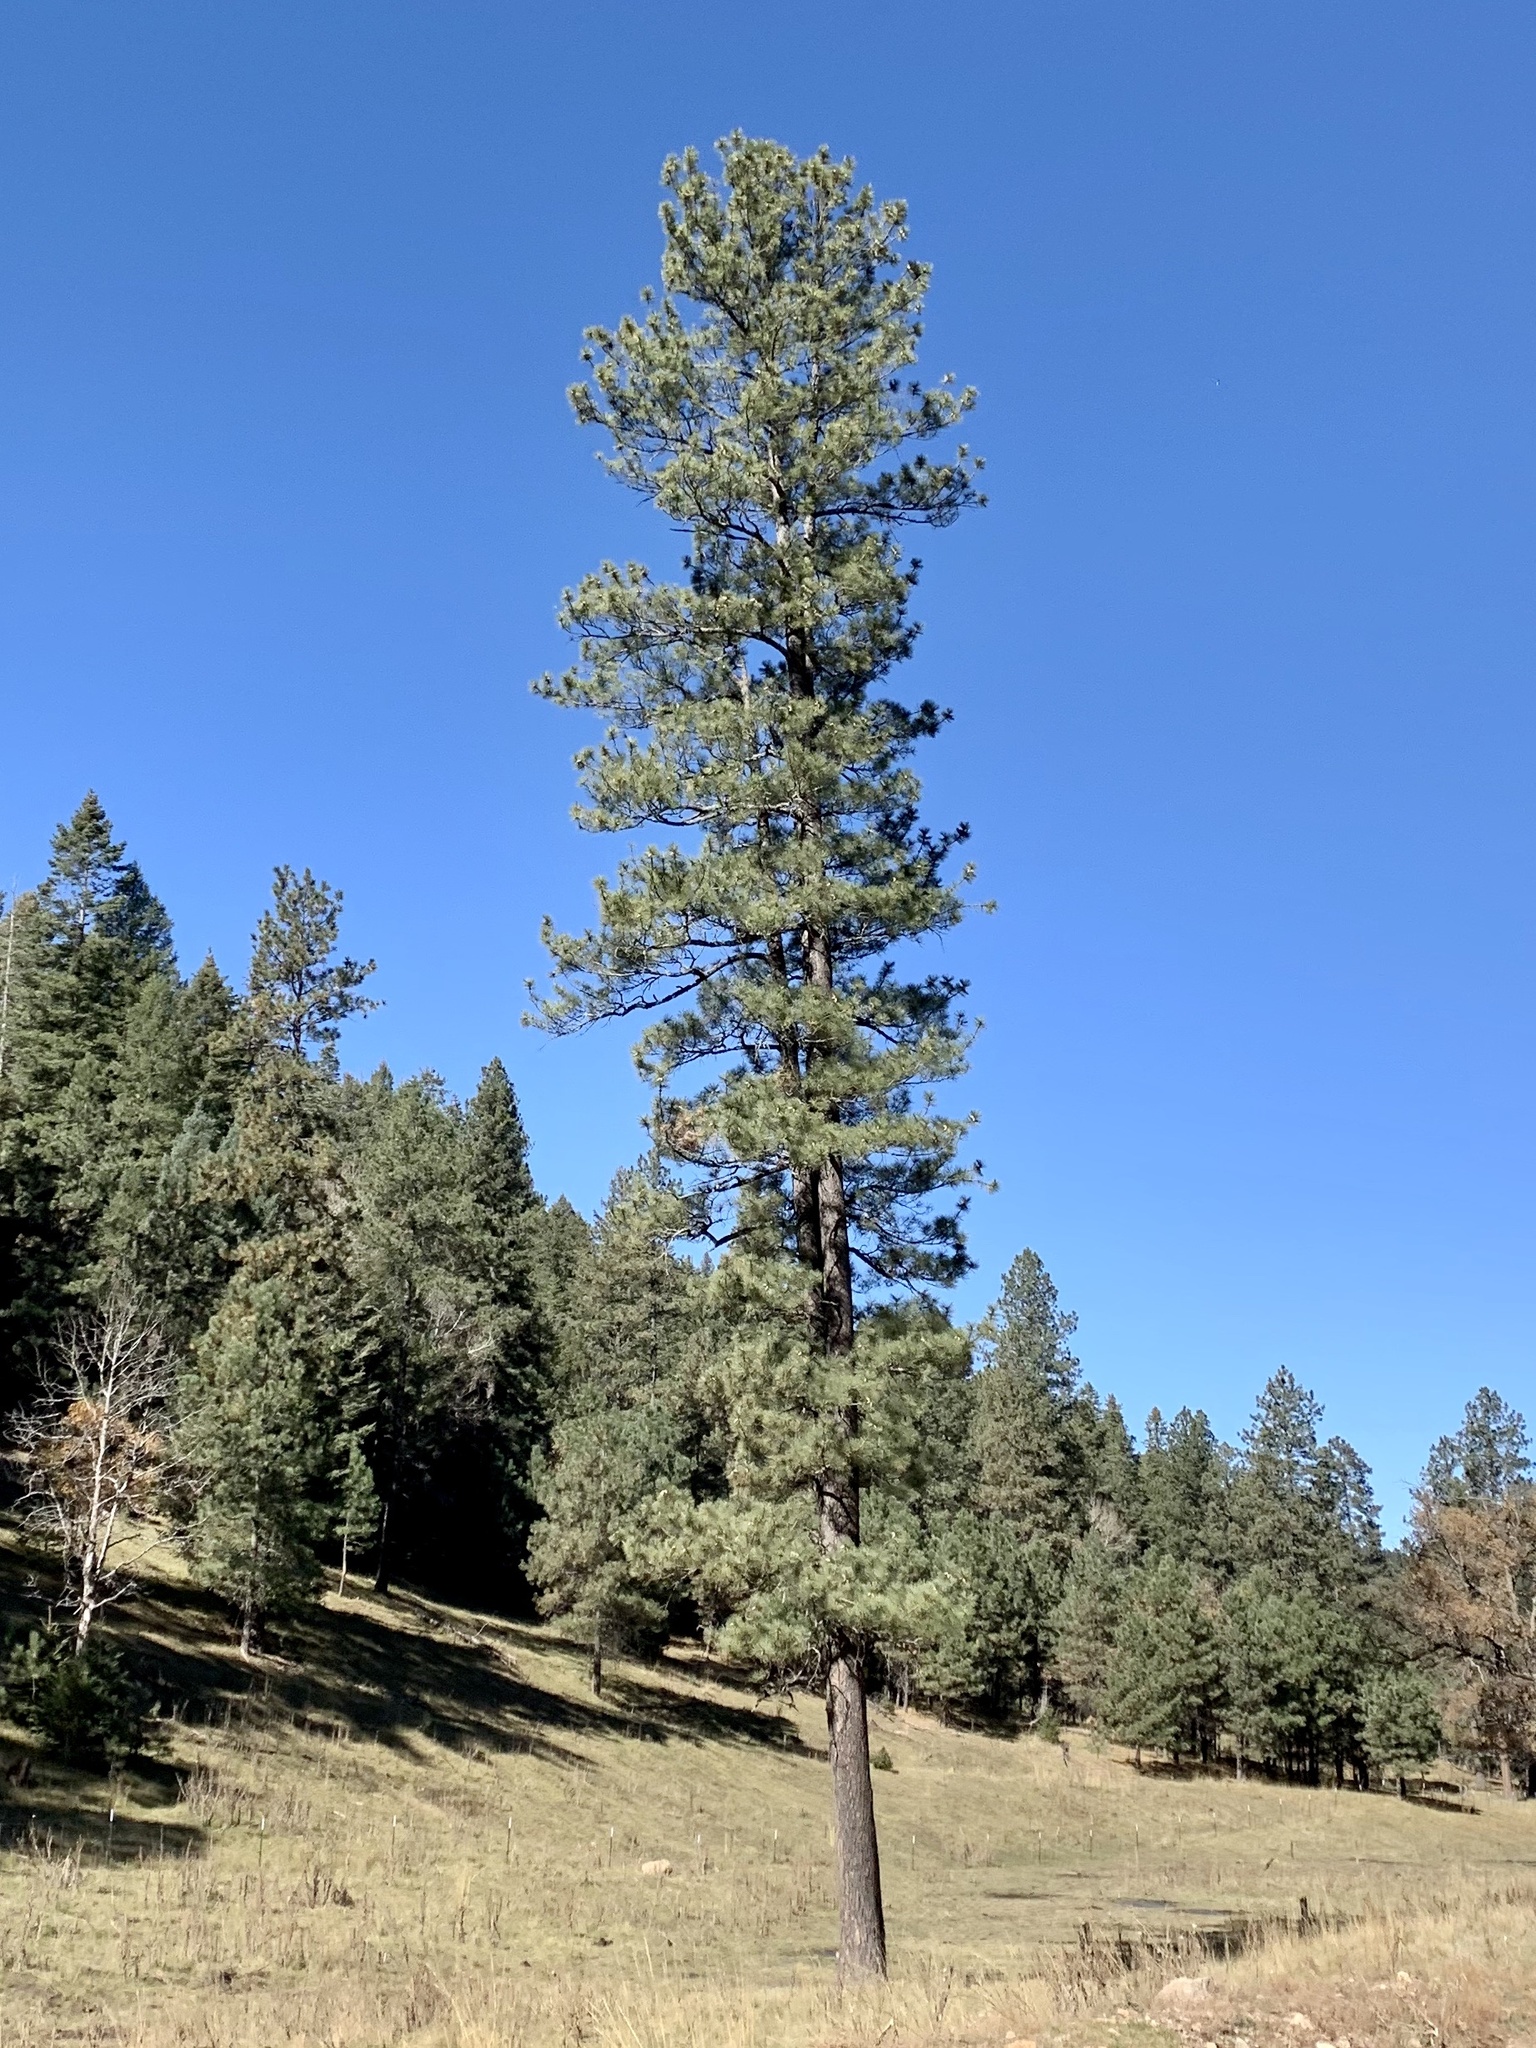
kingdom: Plantae
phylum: Tracheophyta
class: Pinopsida
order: Pinales
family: Pinaceae
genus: Pinus
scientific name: Pinus ponderosa
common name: Western yellow-pine
